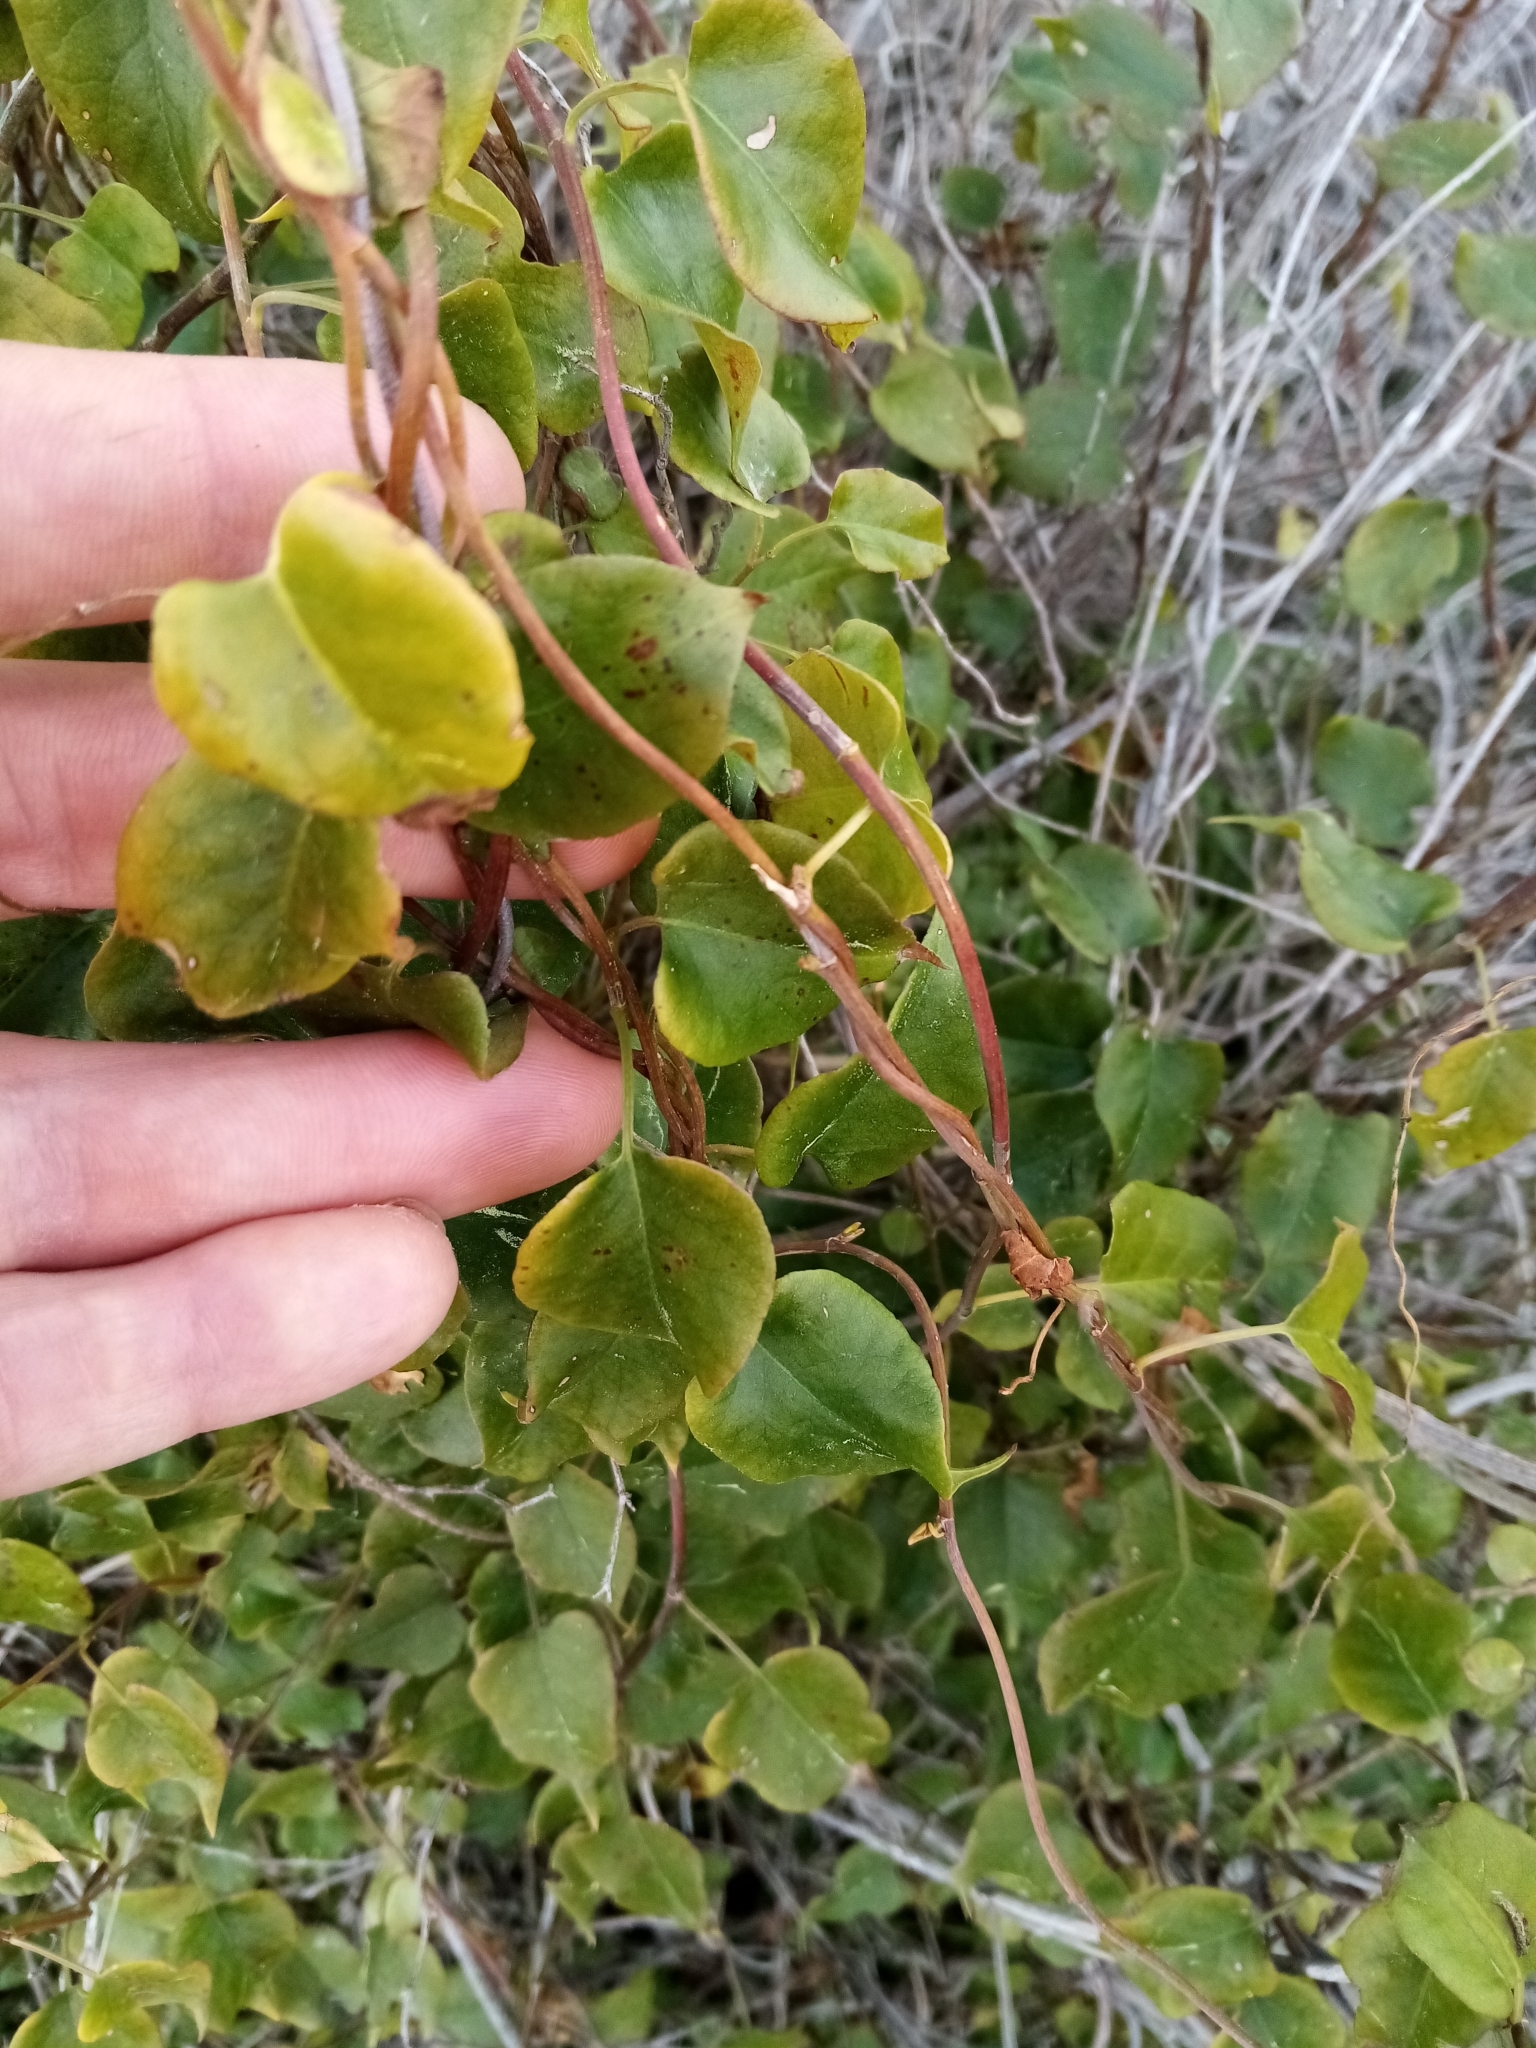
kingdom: Plantae
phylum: Tracheophyta
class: Magnoliopsida
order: Caryophyllales
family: Polygonaceae
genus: Muehlenbeckia
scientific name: Muehlenbeckia australis
